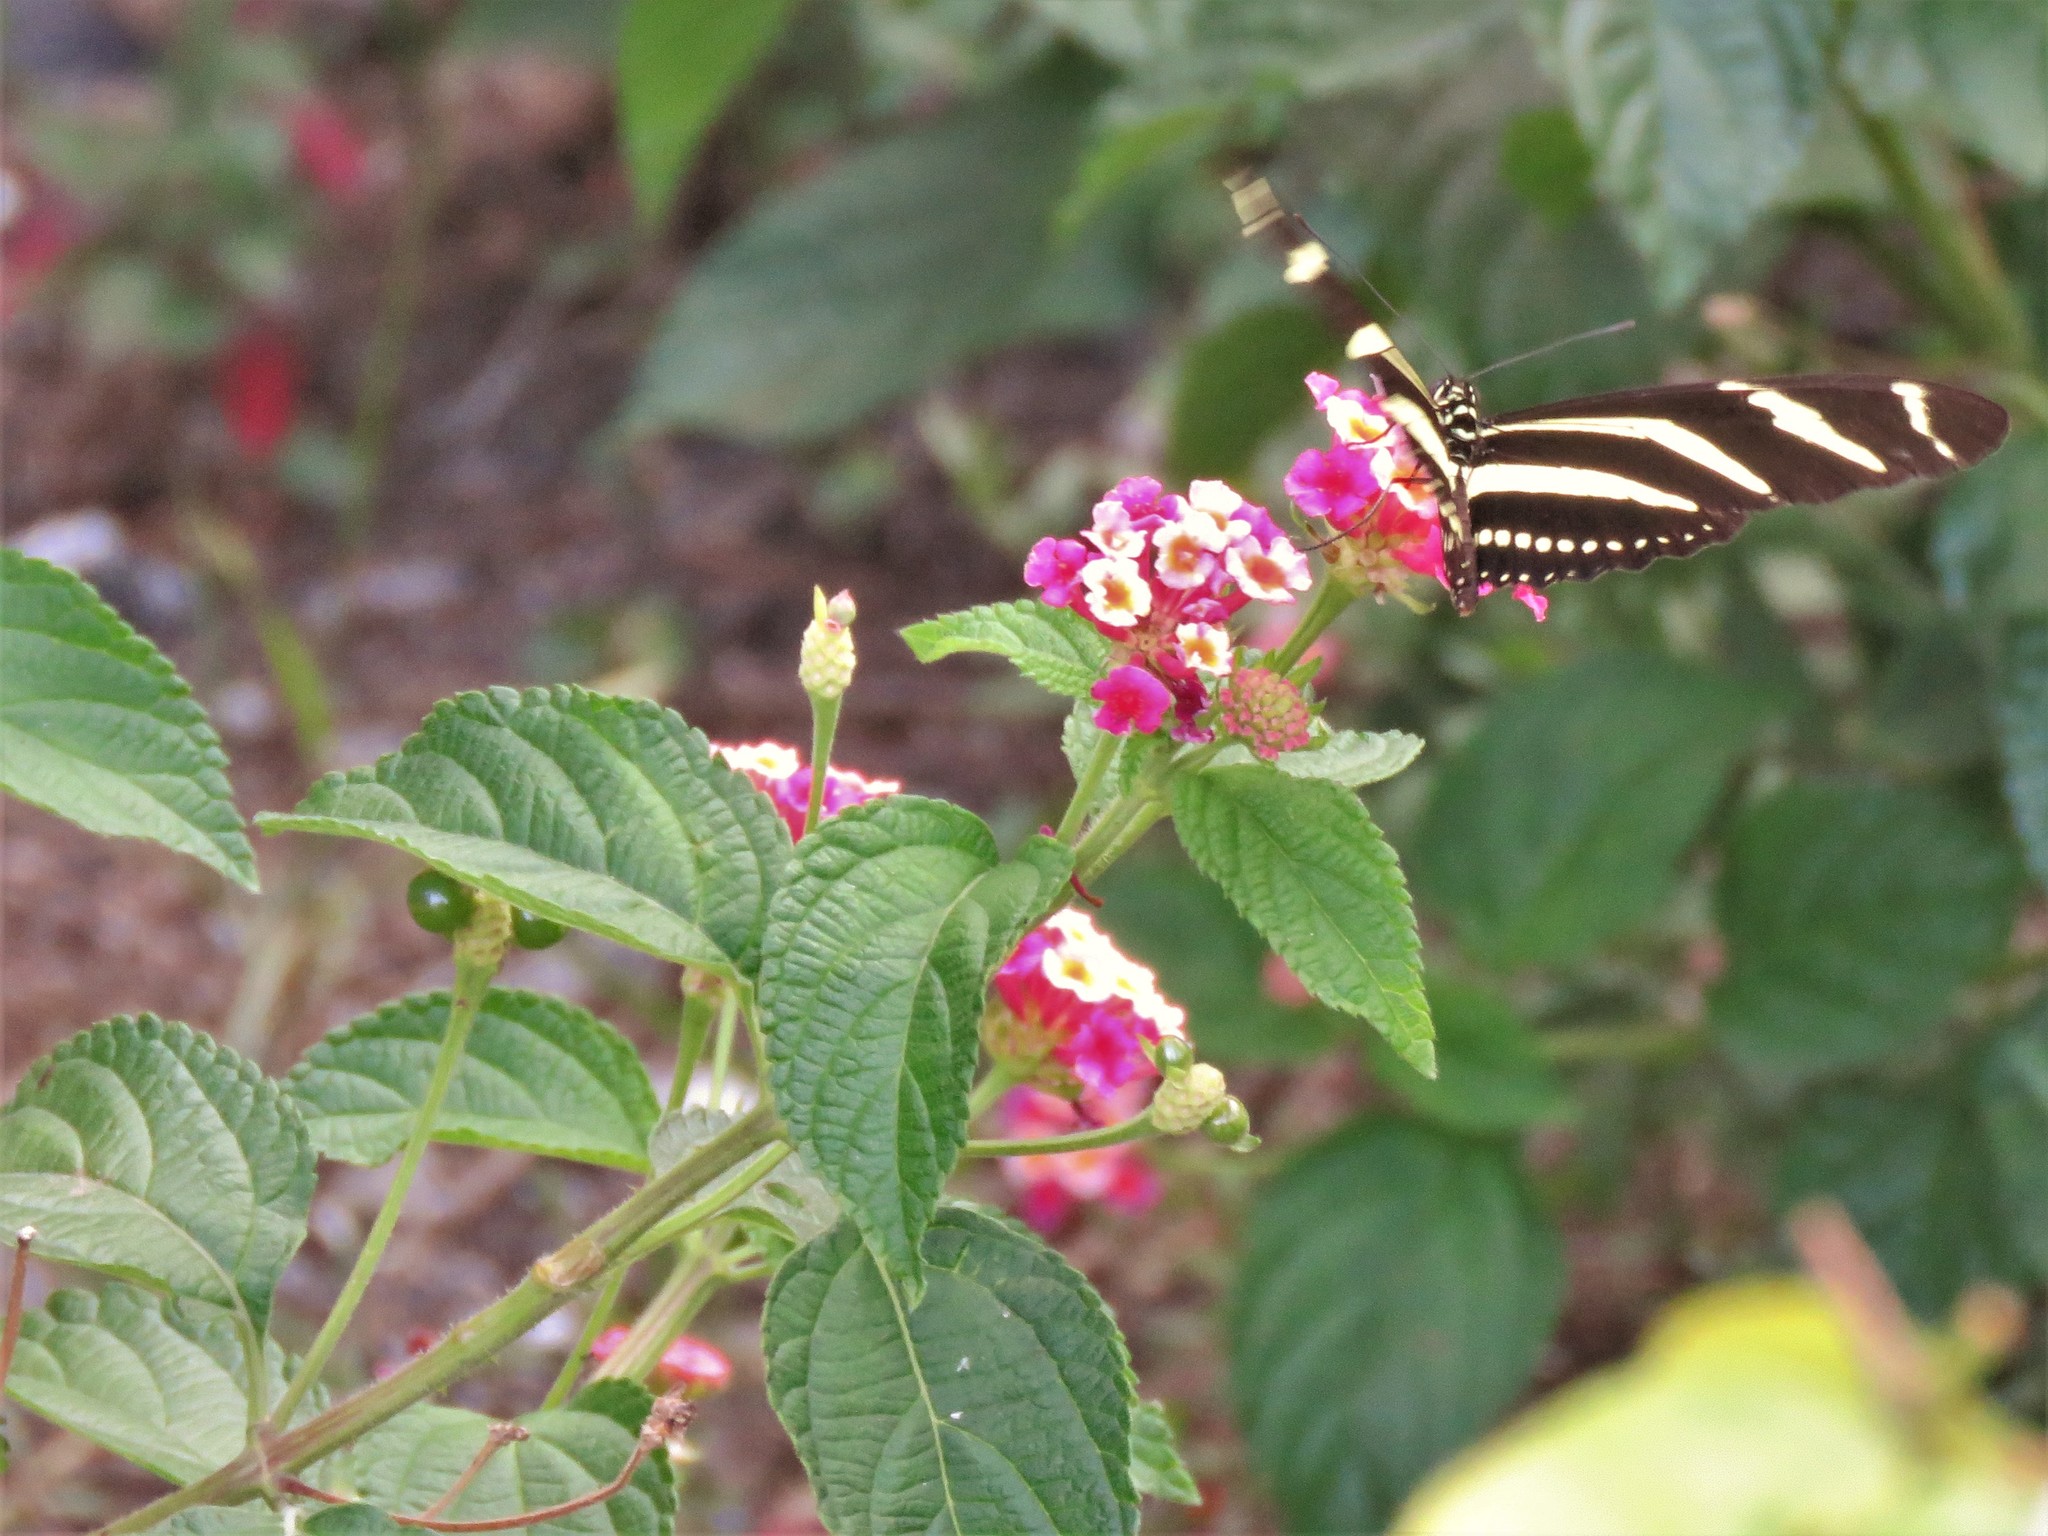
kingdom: Plantae
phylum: Tracheophyta
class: Magnoliopsida
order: Lamiales
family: Verbenaceae
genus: Lantana
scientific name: Lantana camara
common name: Lantana
